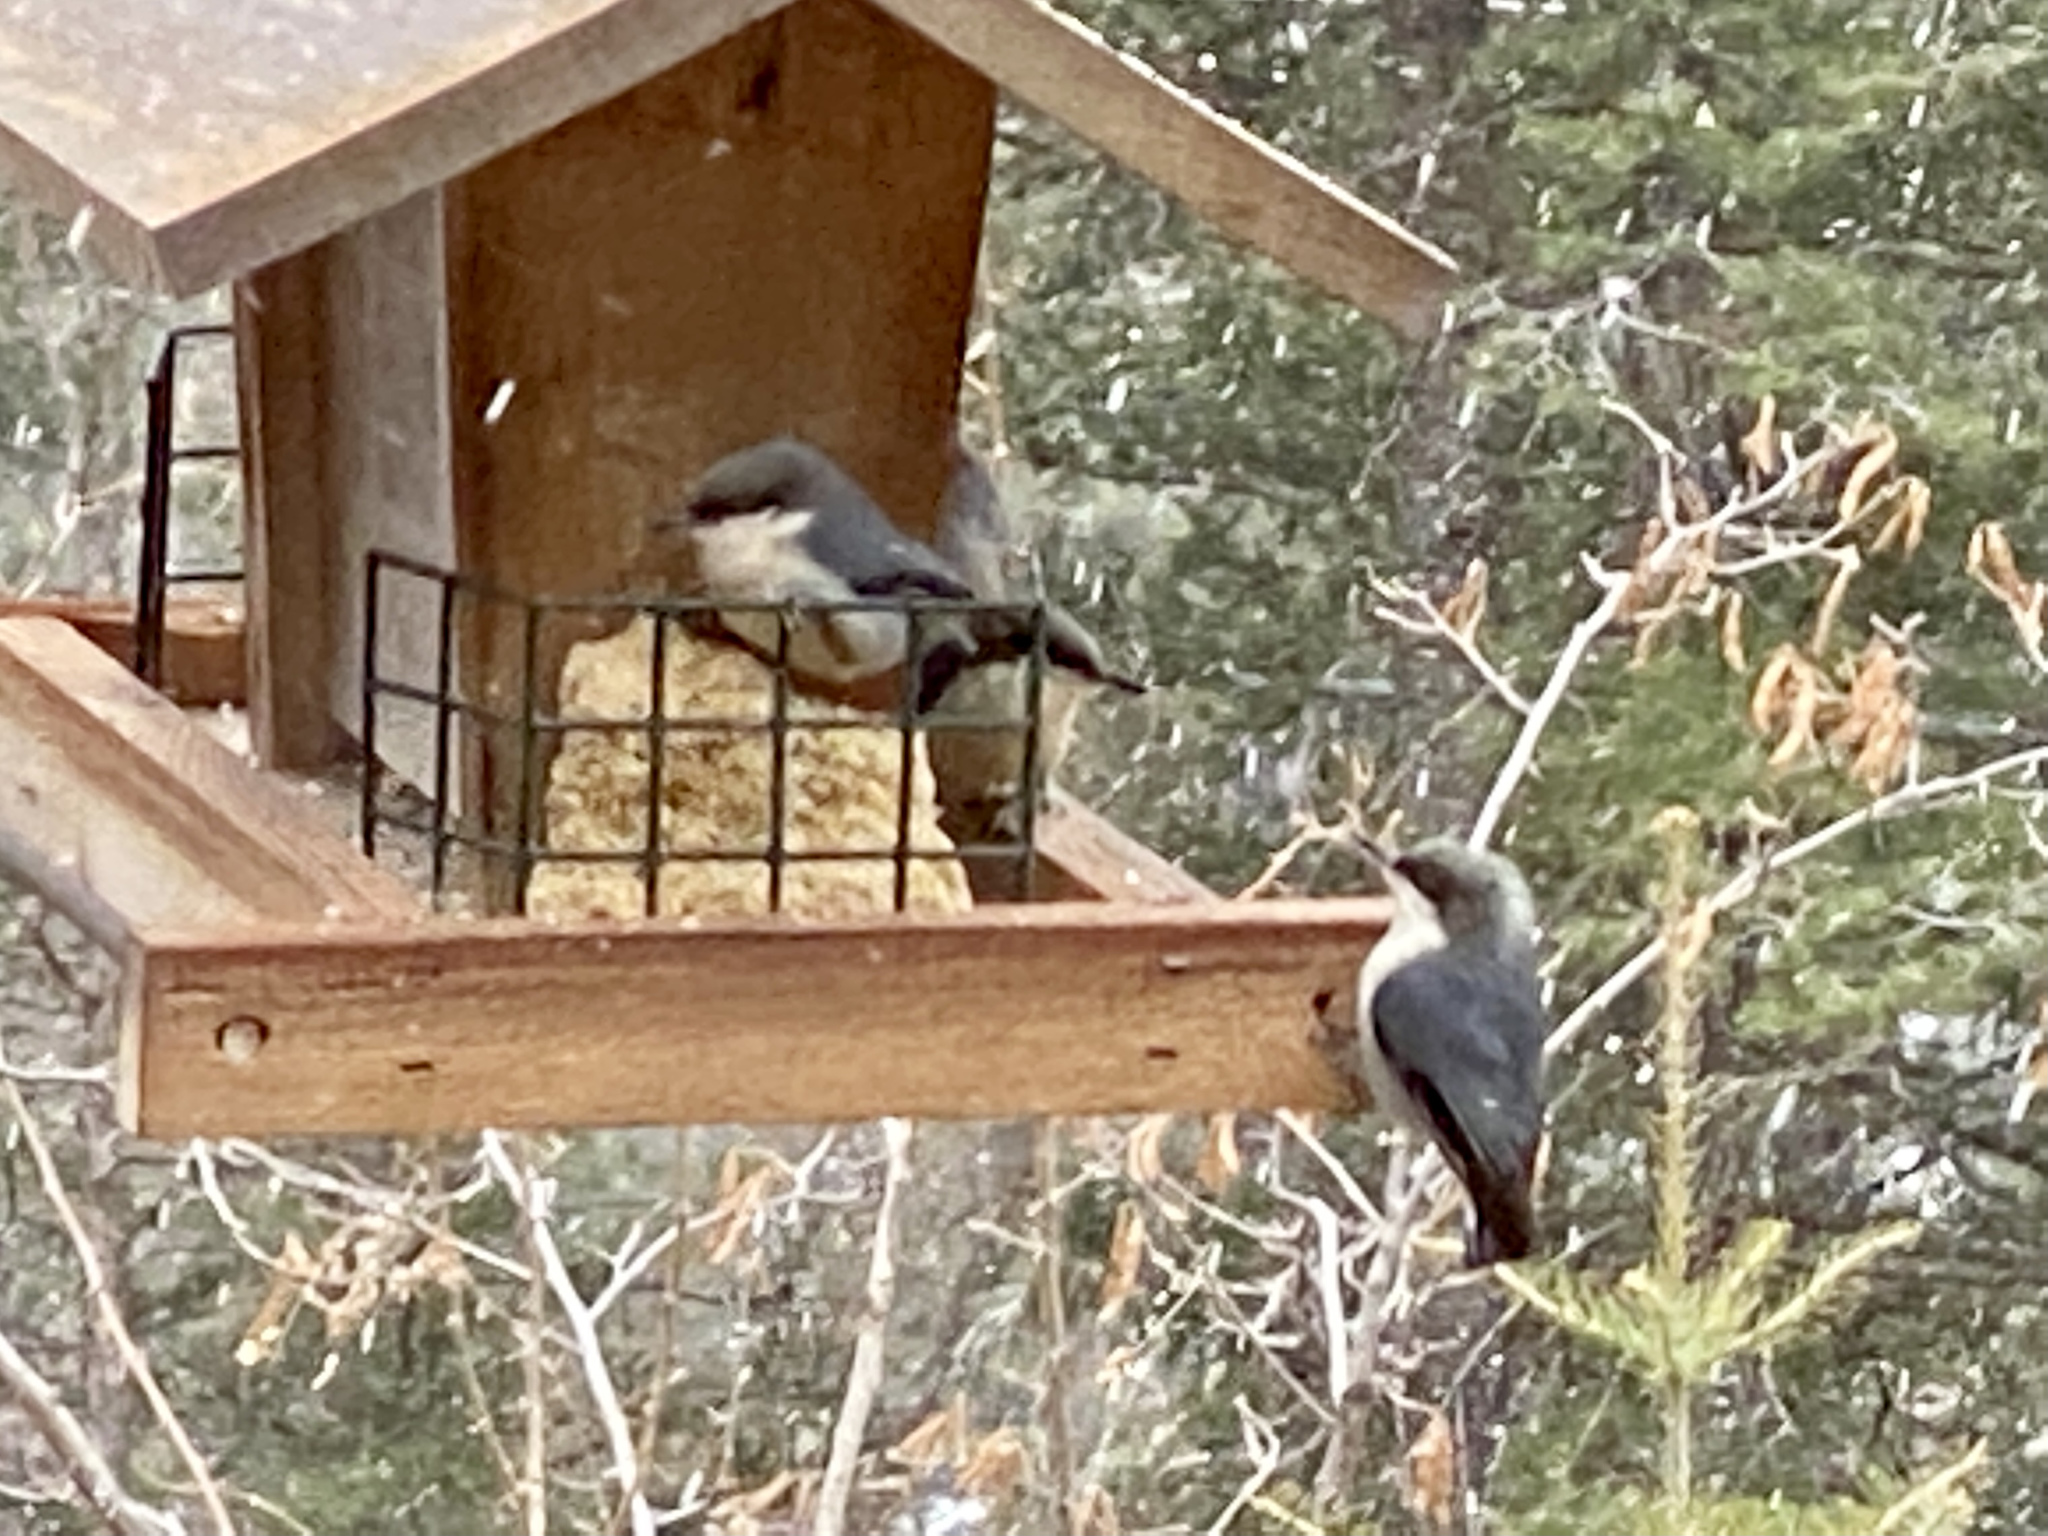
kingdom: Animalia
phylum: Chordata
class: Aves
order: Passeriformes
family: Sittidae
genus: Sitta
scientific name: Sitta pygmaea
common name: Pygmy nuthatch
